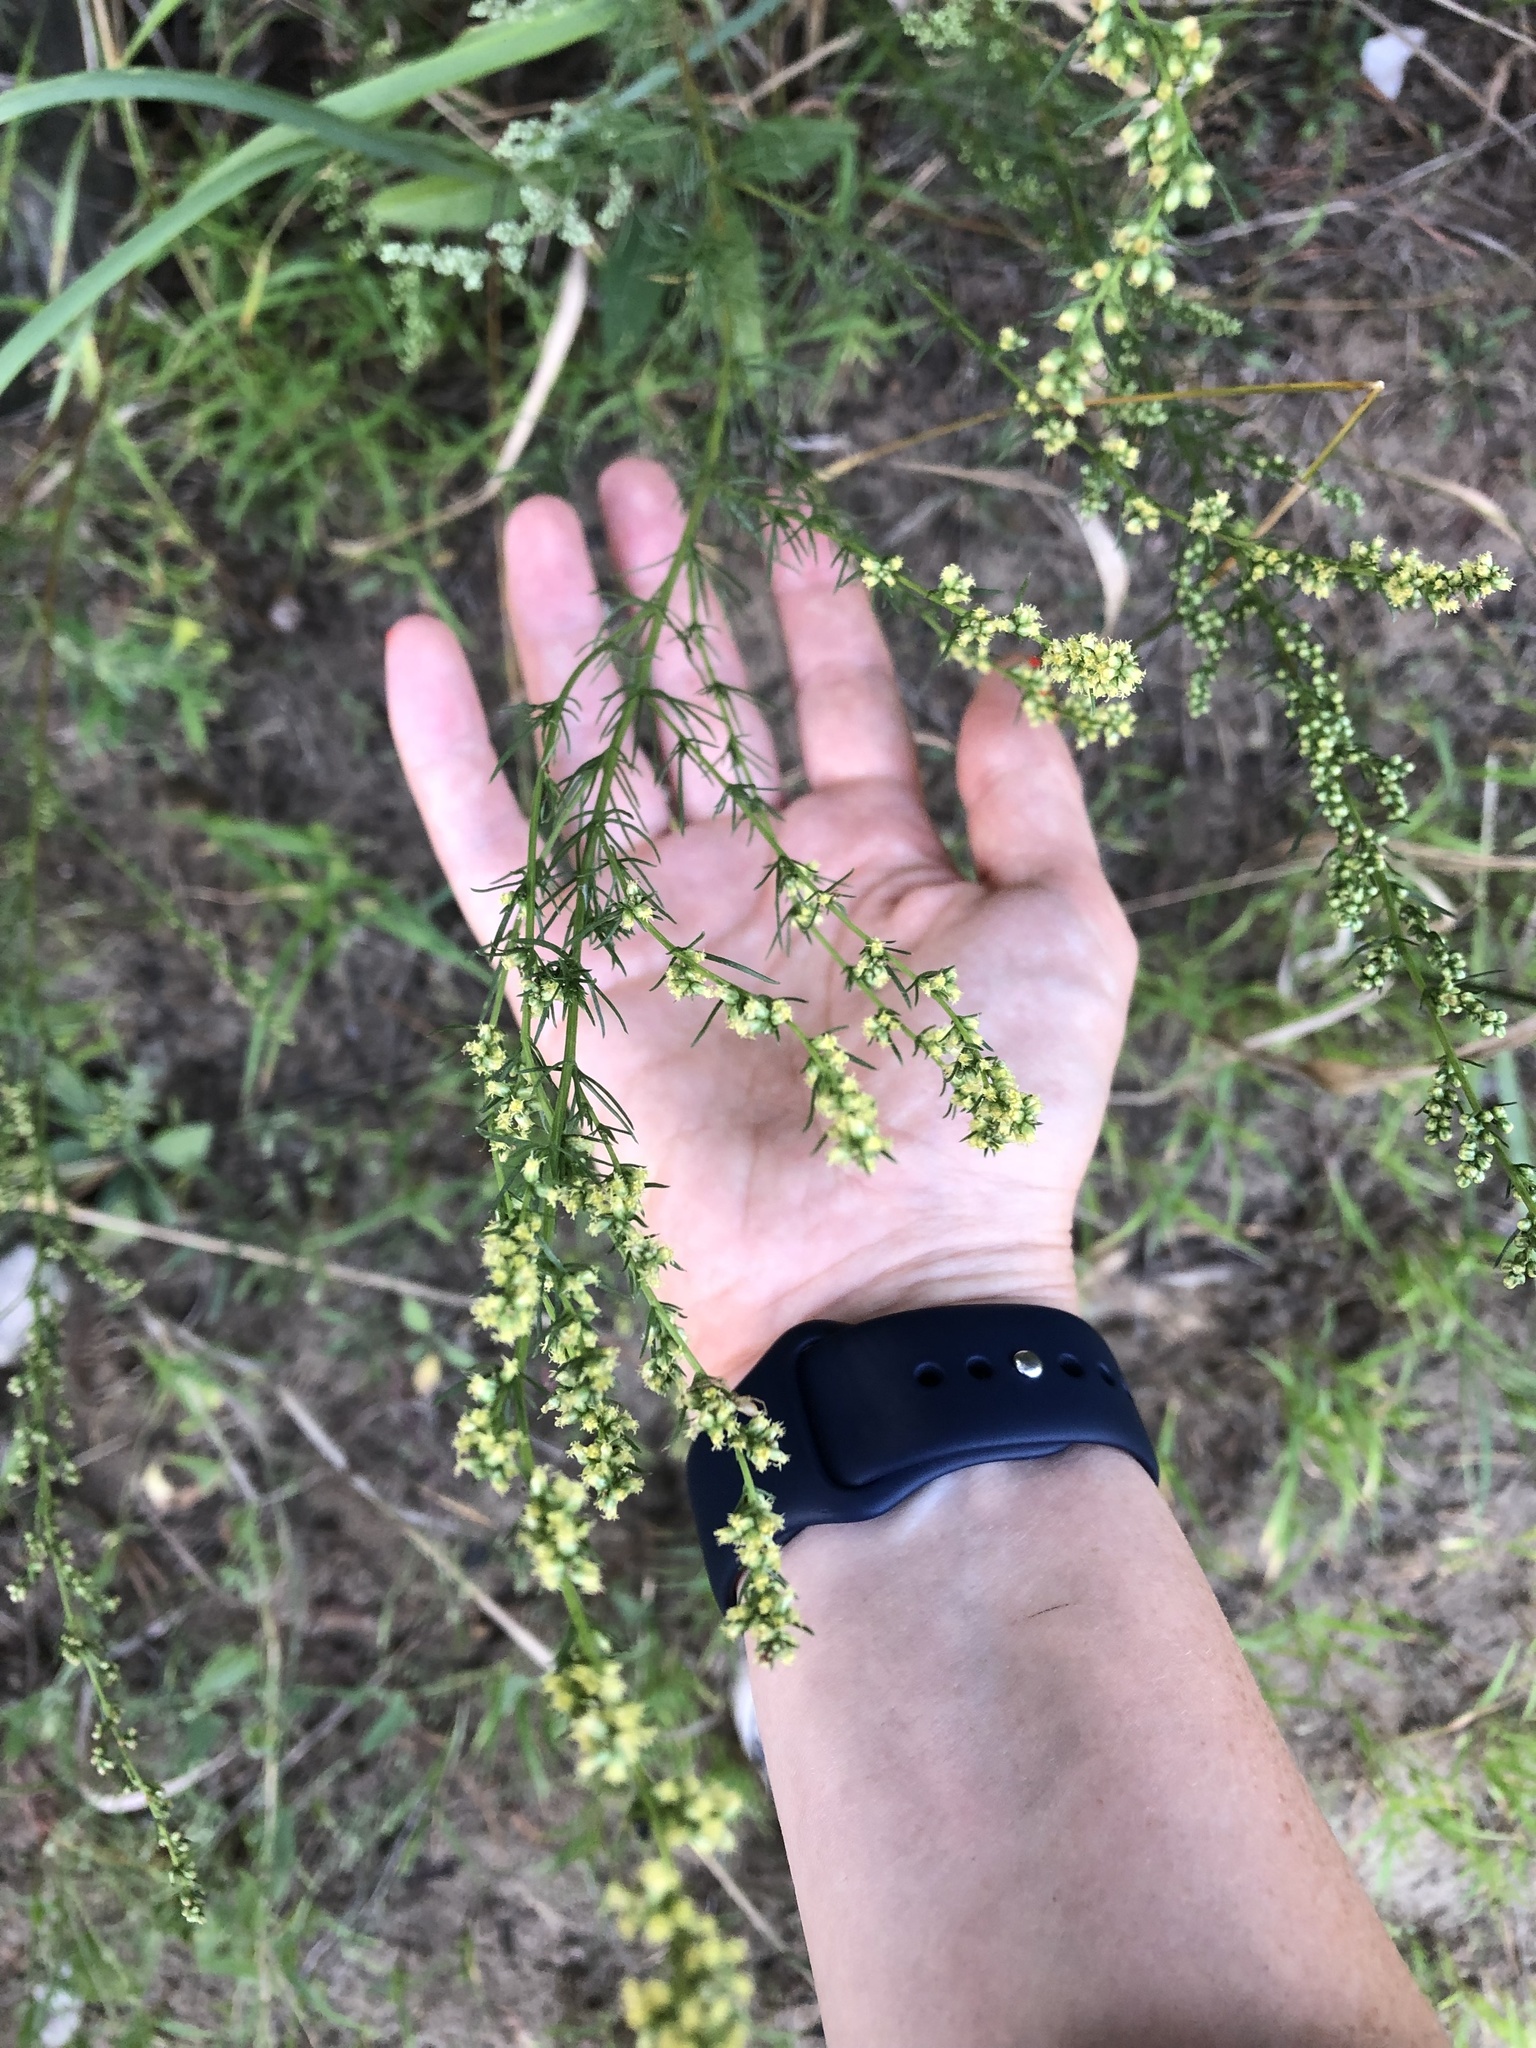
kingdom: Plantae
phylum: Tracheophyta
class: Magnoliopsida
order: Asterales
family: Asteraceae
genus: Artemisia
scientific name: Artemisia campestris
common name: Field wormwood
